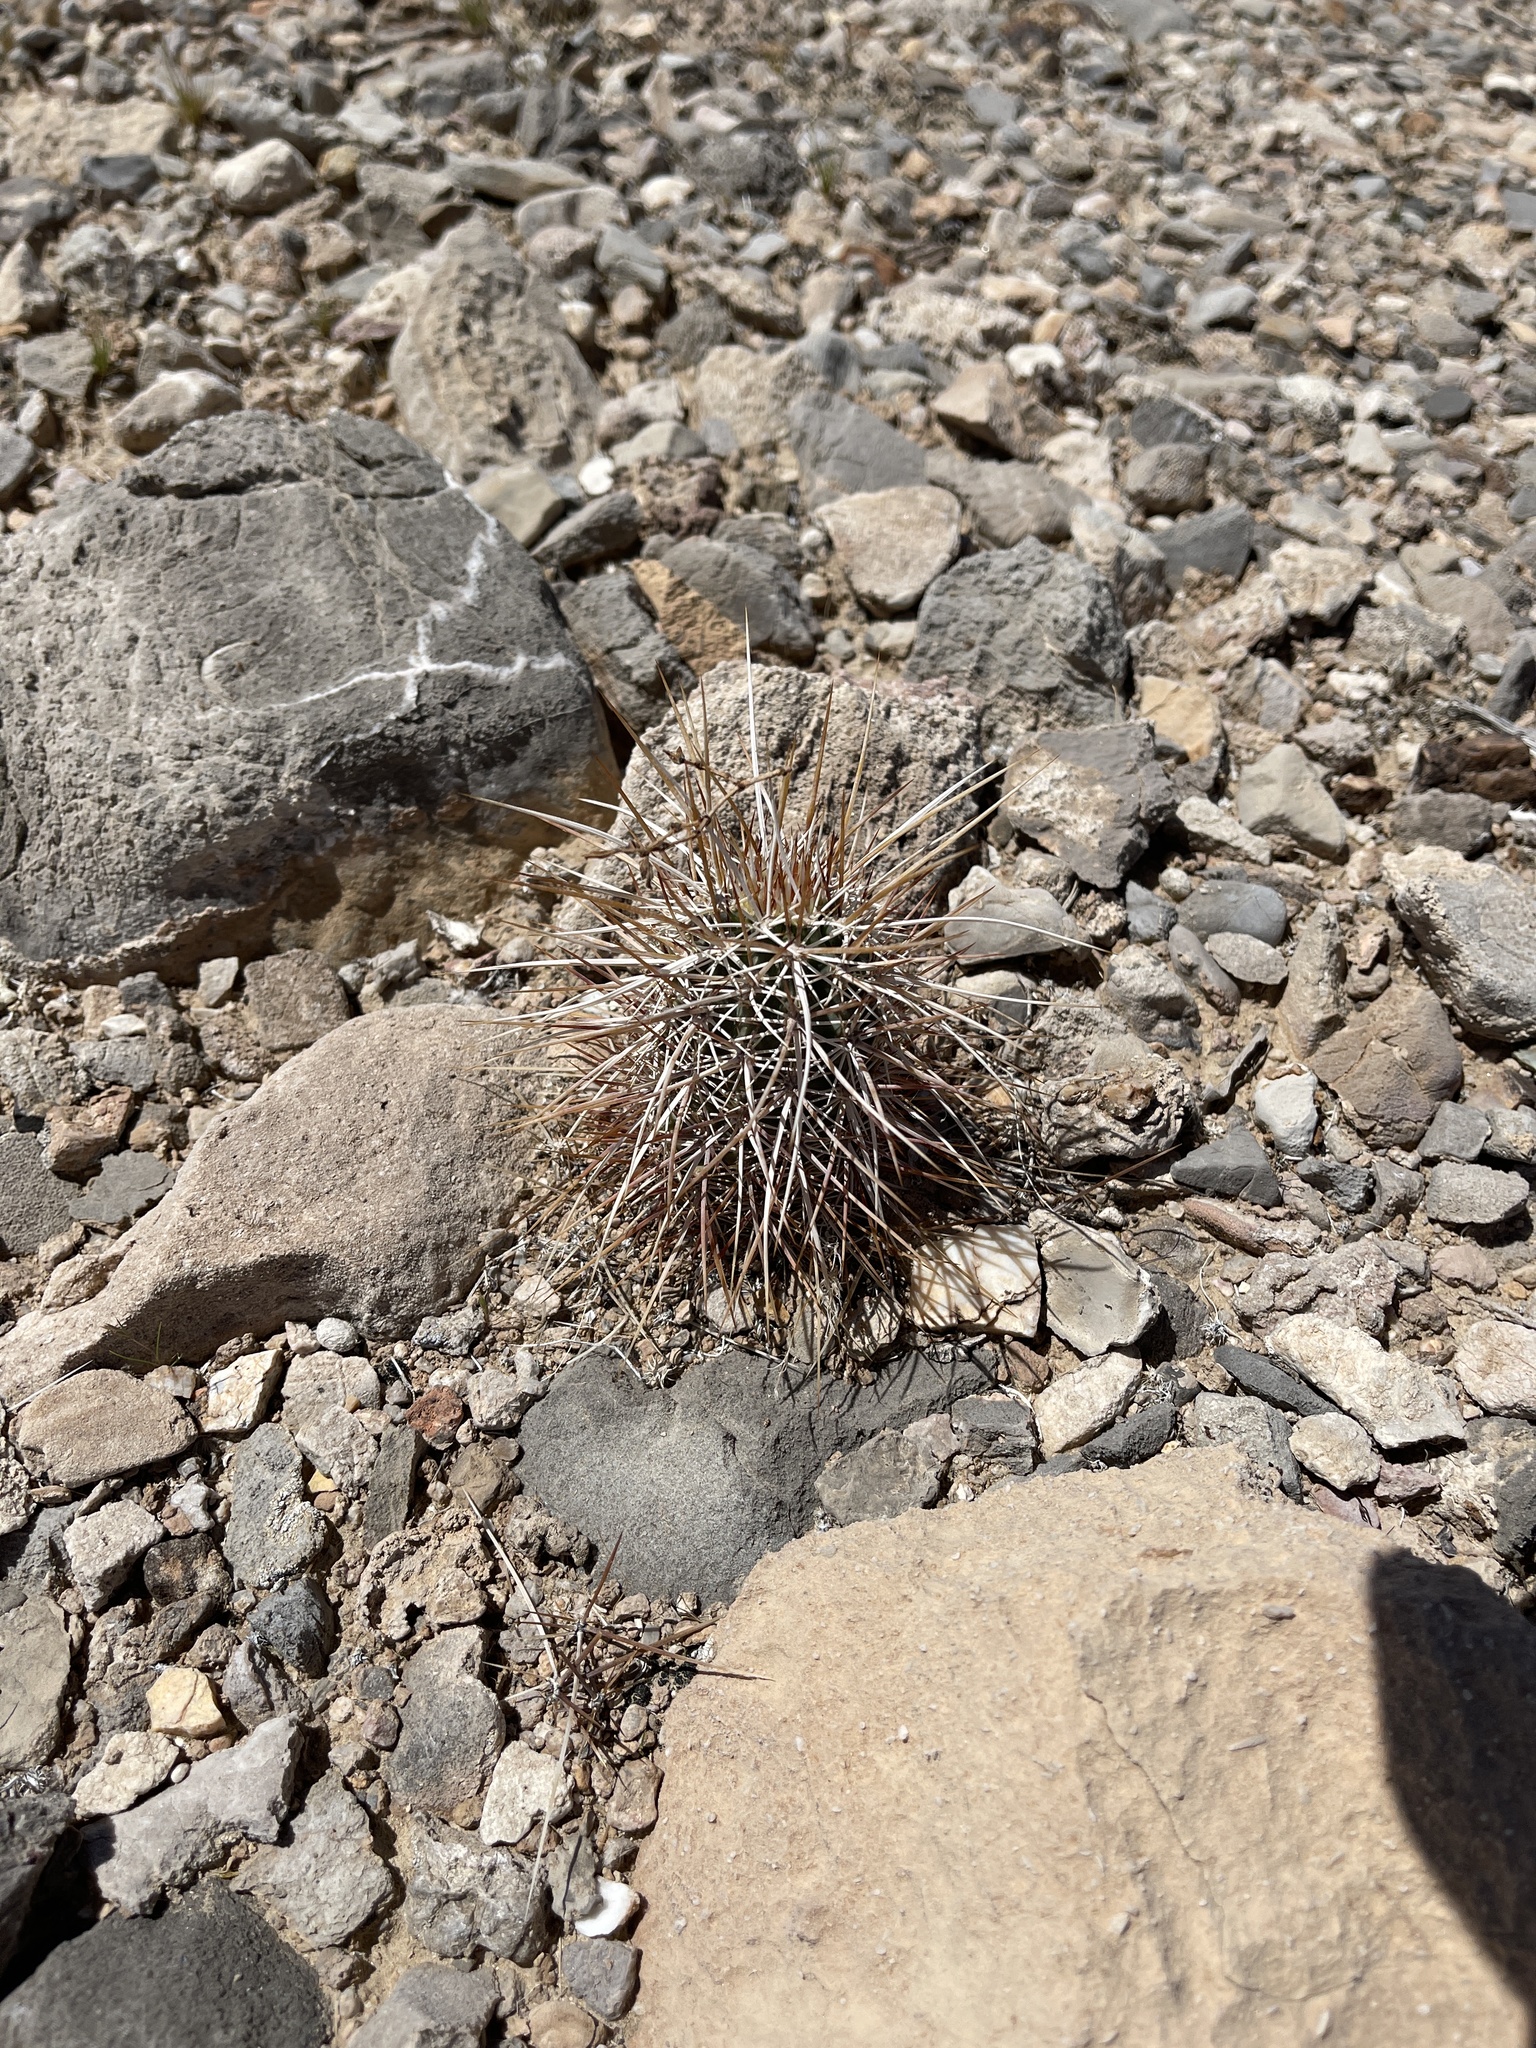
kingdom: Plantae
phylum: Tracheophyta
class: Magnoliopsida
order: Caryophyllales
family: Cactaceae
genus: Echinocereus
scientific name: Echinocereus engelmannii
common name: Engelmann's hedgehog cactus
